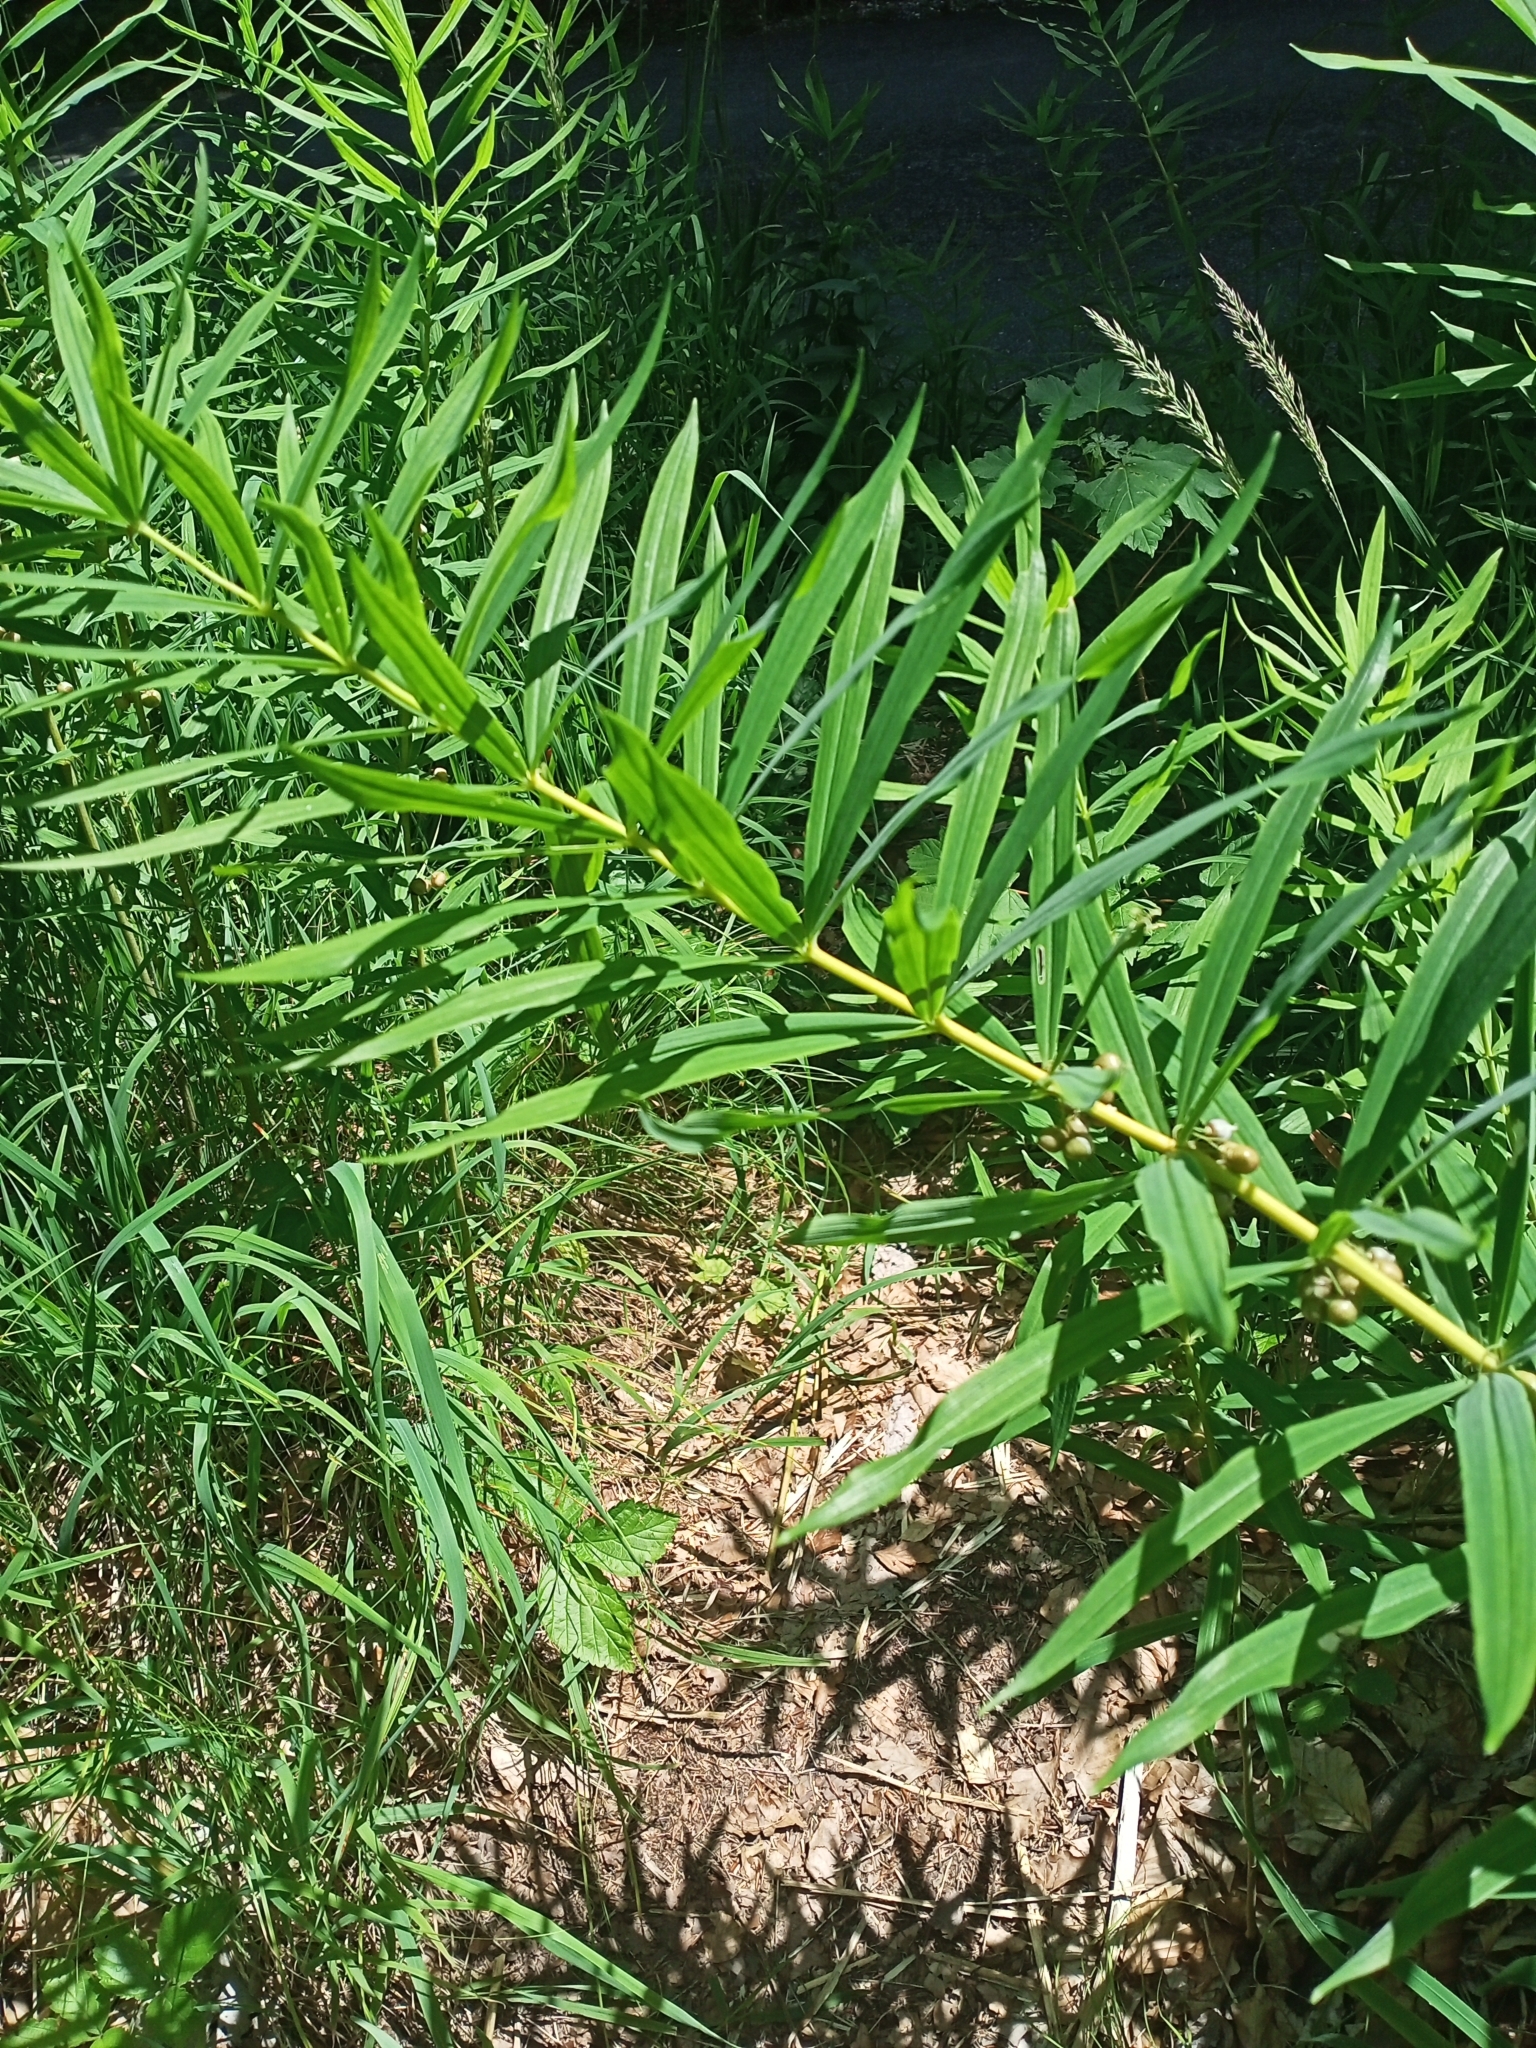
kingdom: Plantae
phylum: Tracheophyta
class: Liliopsida
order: Asparagales
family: Asparagaceae
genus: Polygonatum
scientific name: Polygonatum verticillatum
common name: Whorled solomon's-seal
